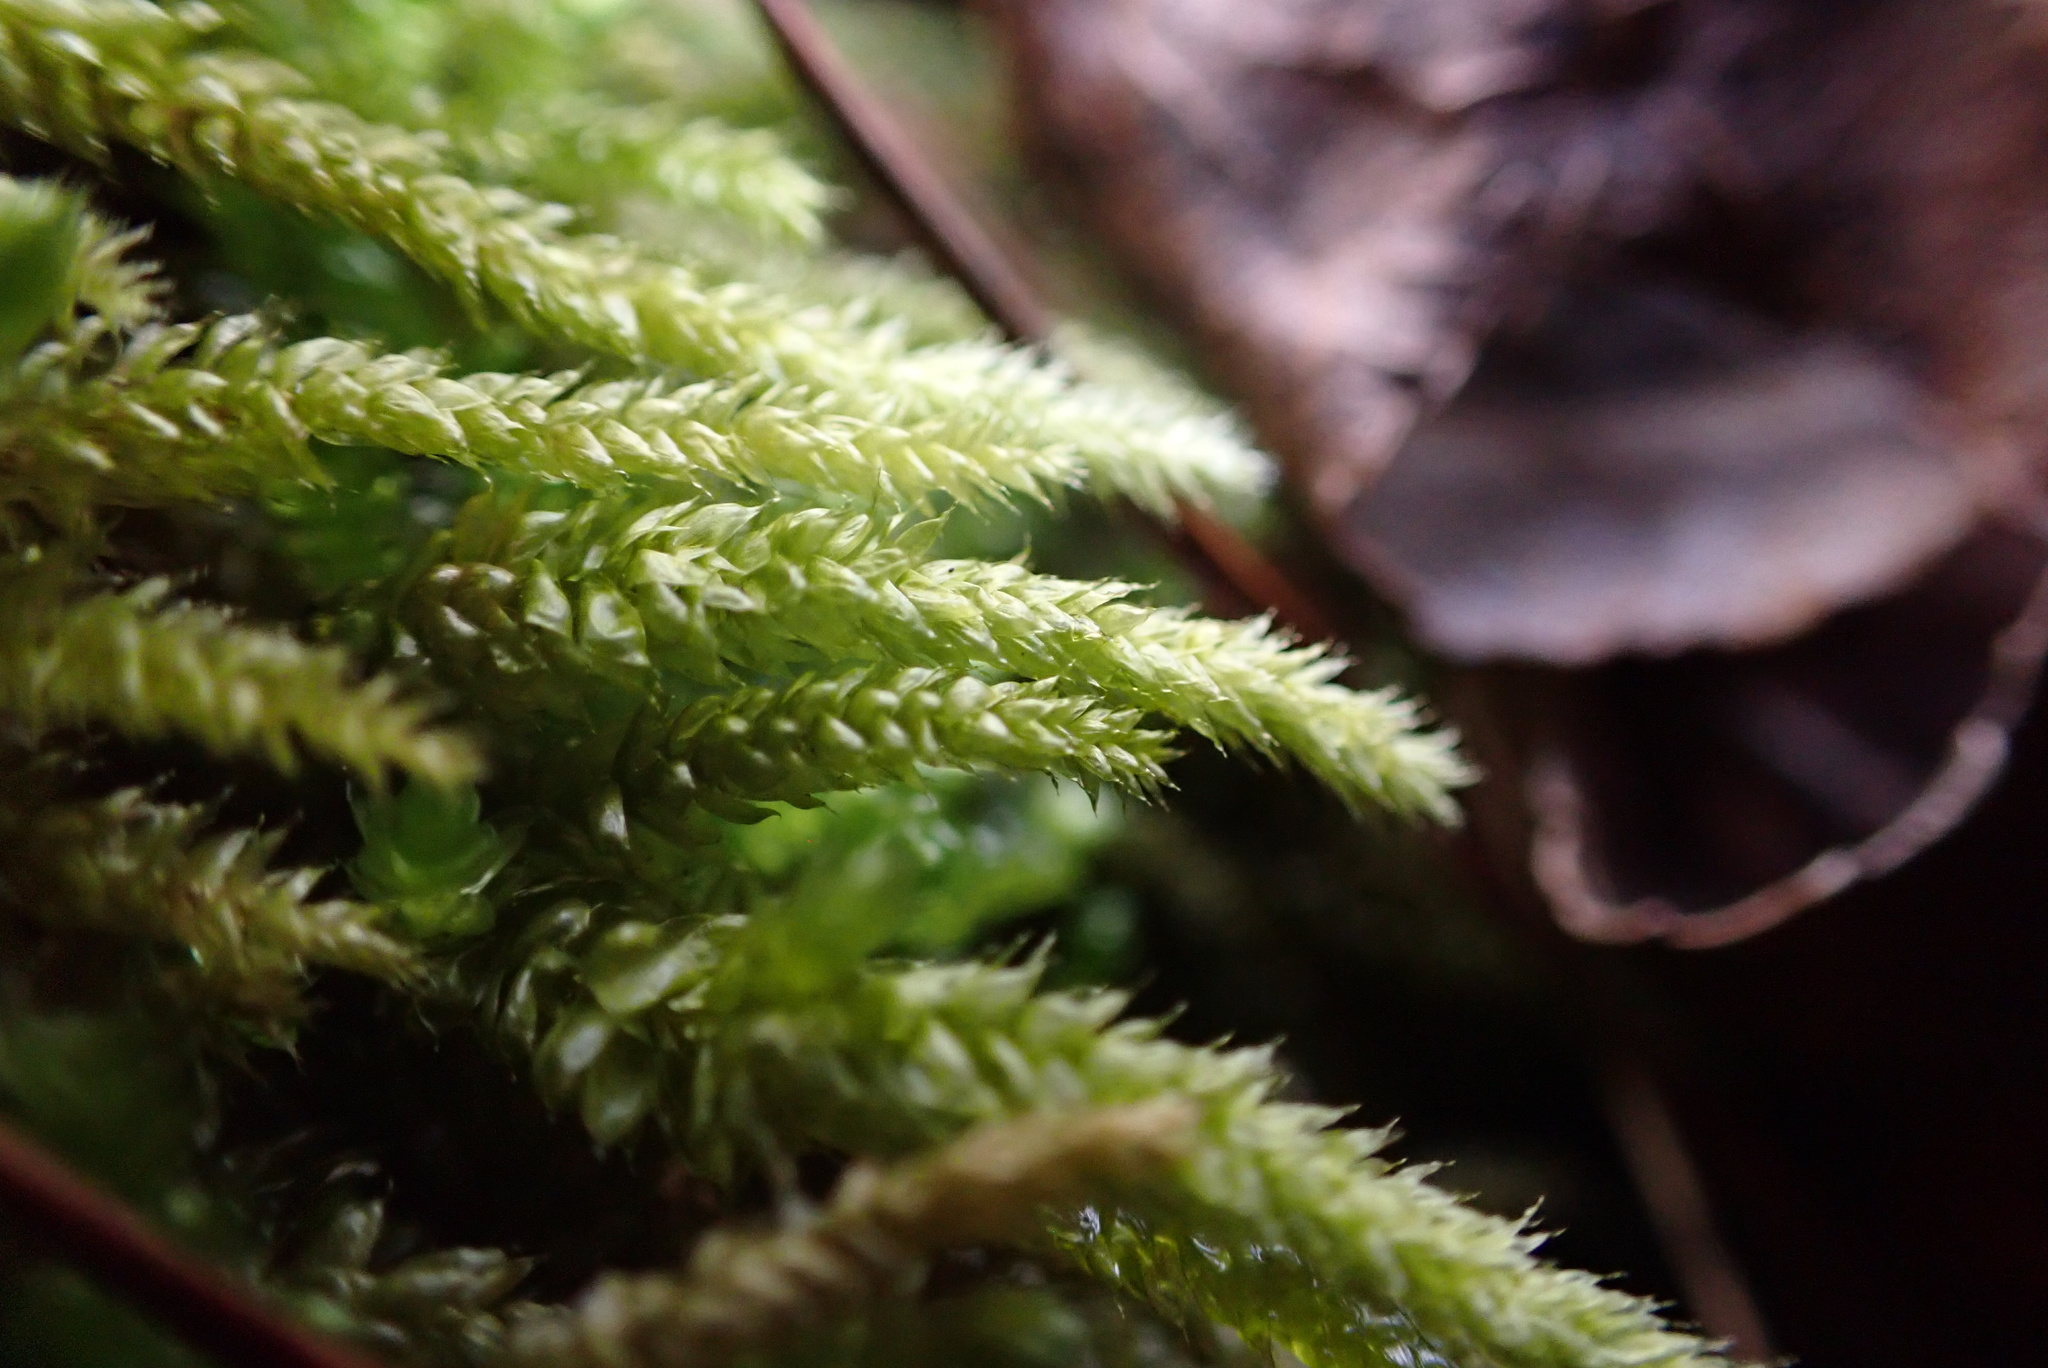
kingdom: Plantae
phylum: Bryophyta
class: Bryopsida
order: Hypnales
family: Brachytheciaceae
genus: Bryoandersonia
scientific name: Bryoandersonia illecebra
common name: Spoon-leaved moss
